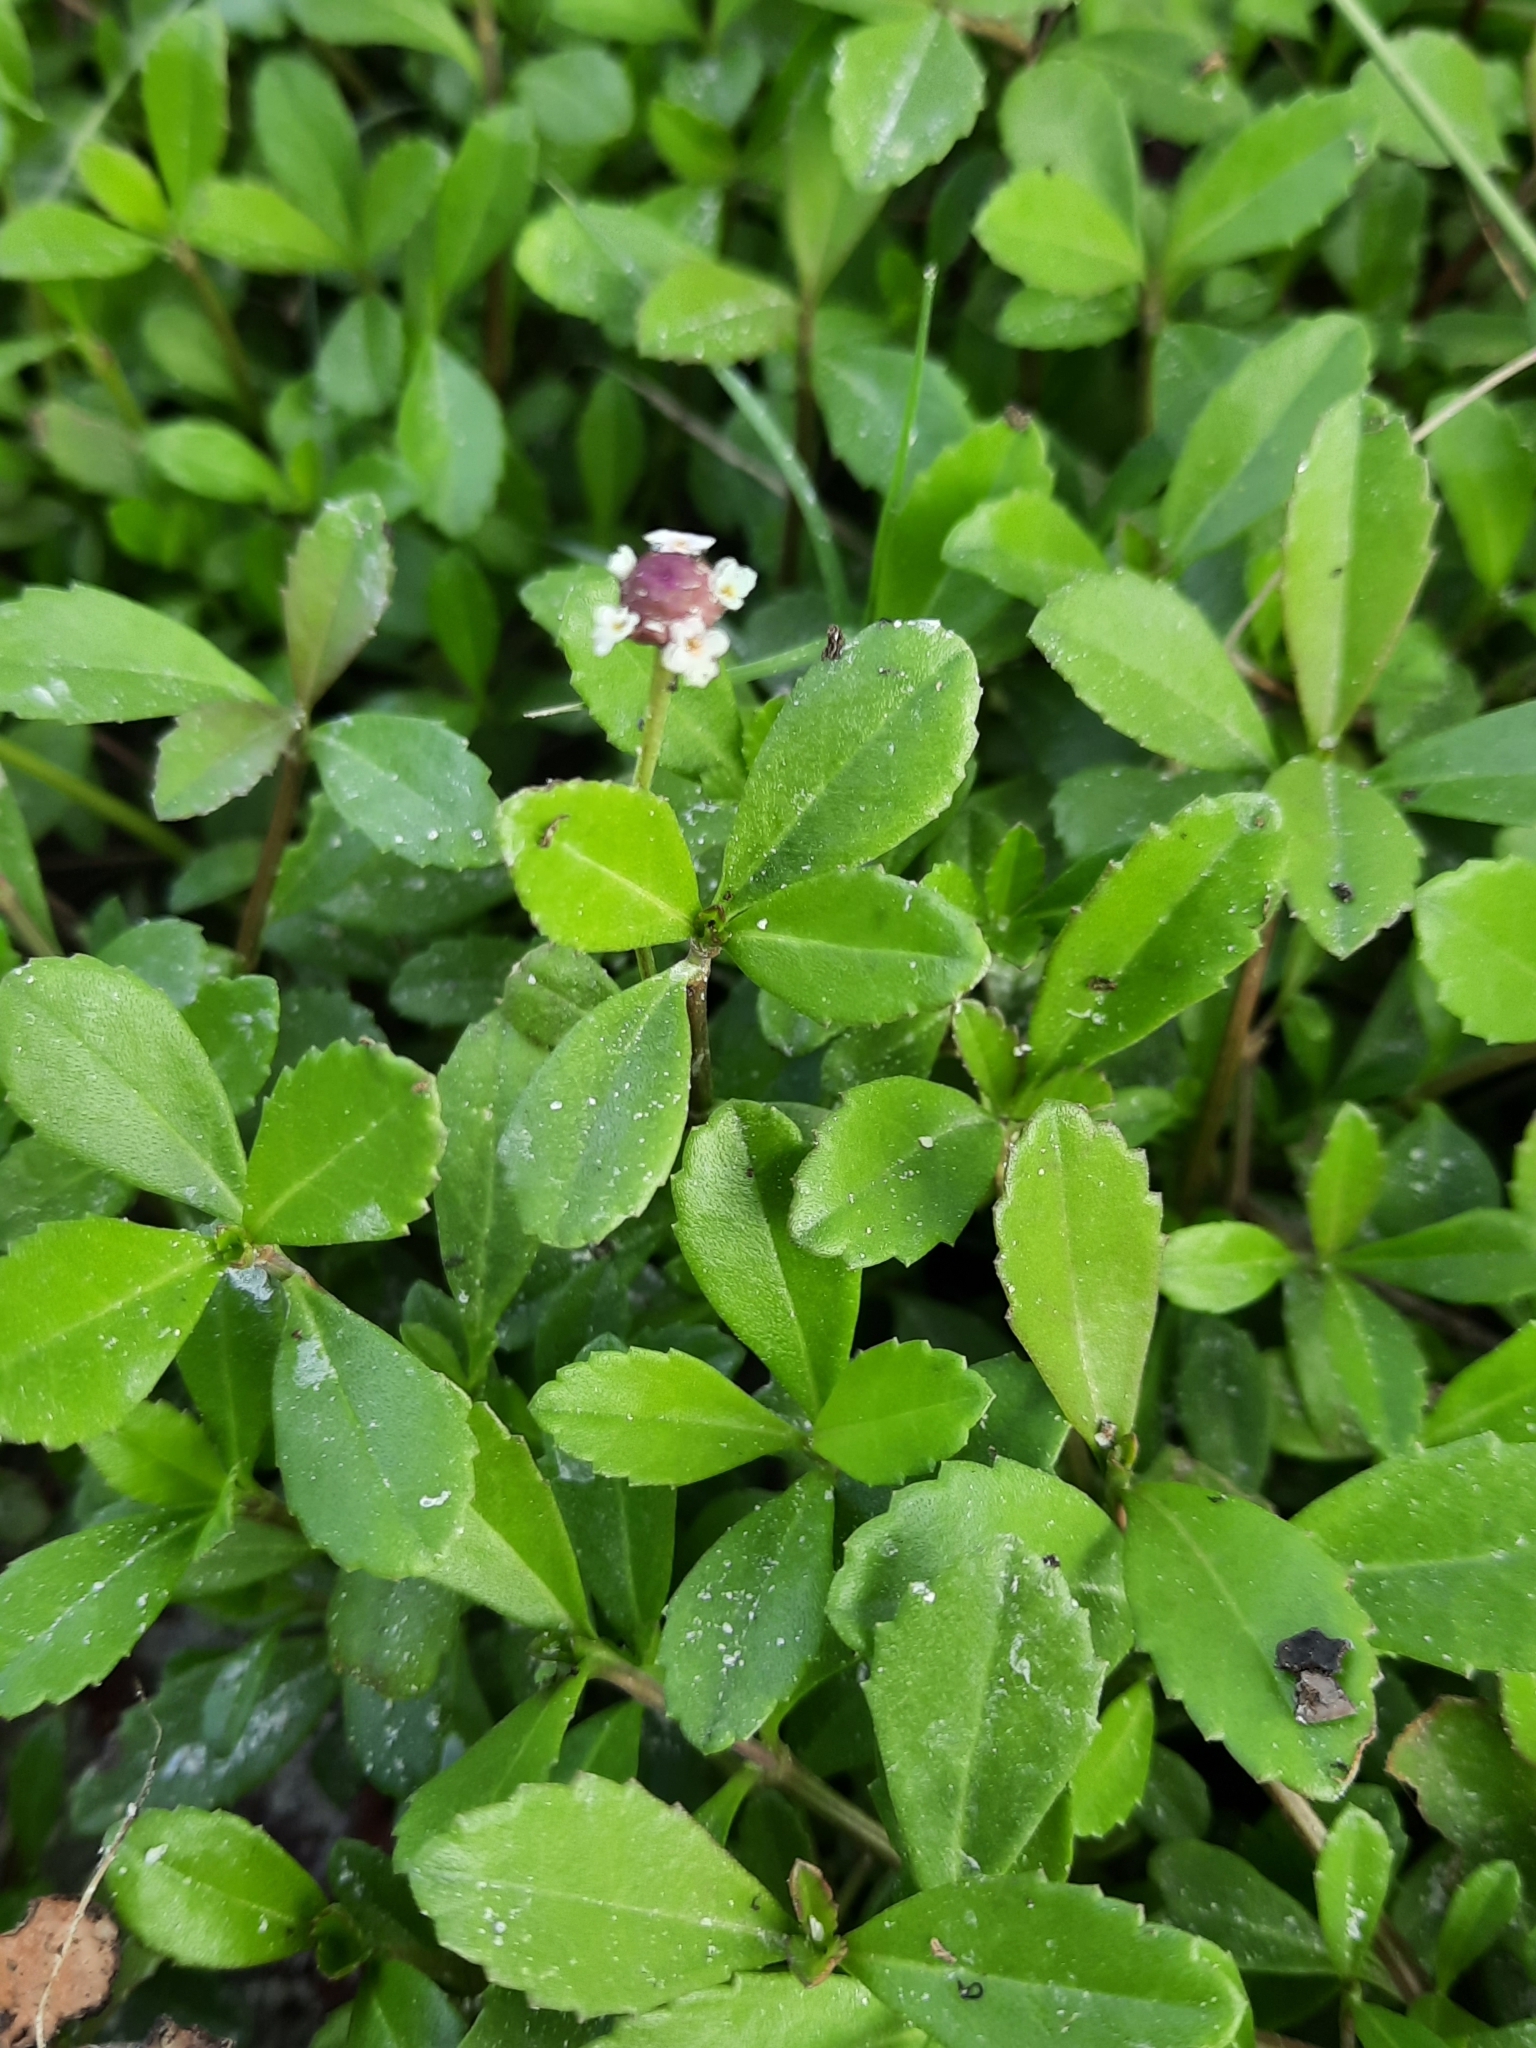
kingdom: Plantae
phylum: Tracheophyta
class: Magnoliopsida
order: Lamiales
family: Verbenaceae
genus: Phyla
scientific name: Phyla nodiflora
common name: Frogfruit
